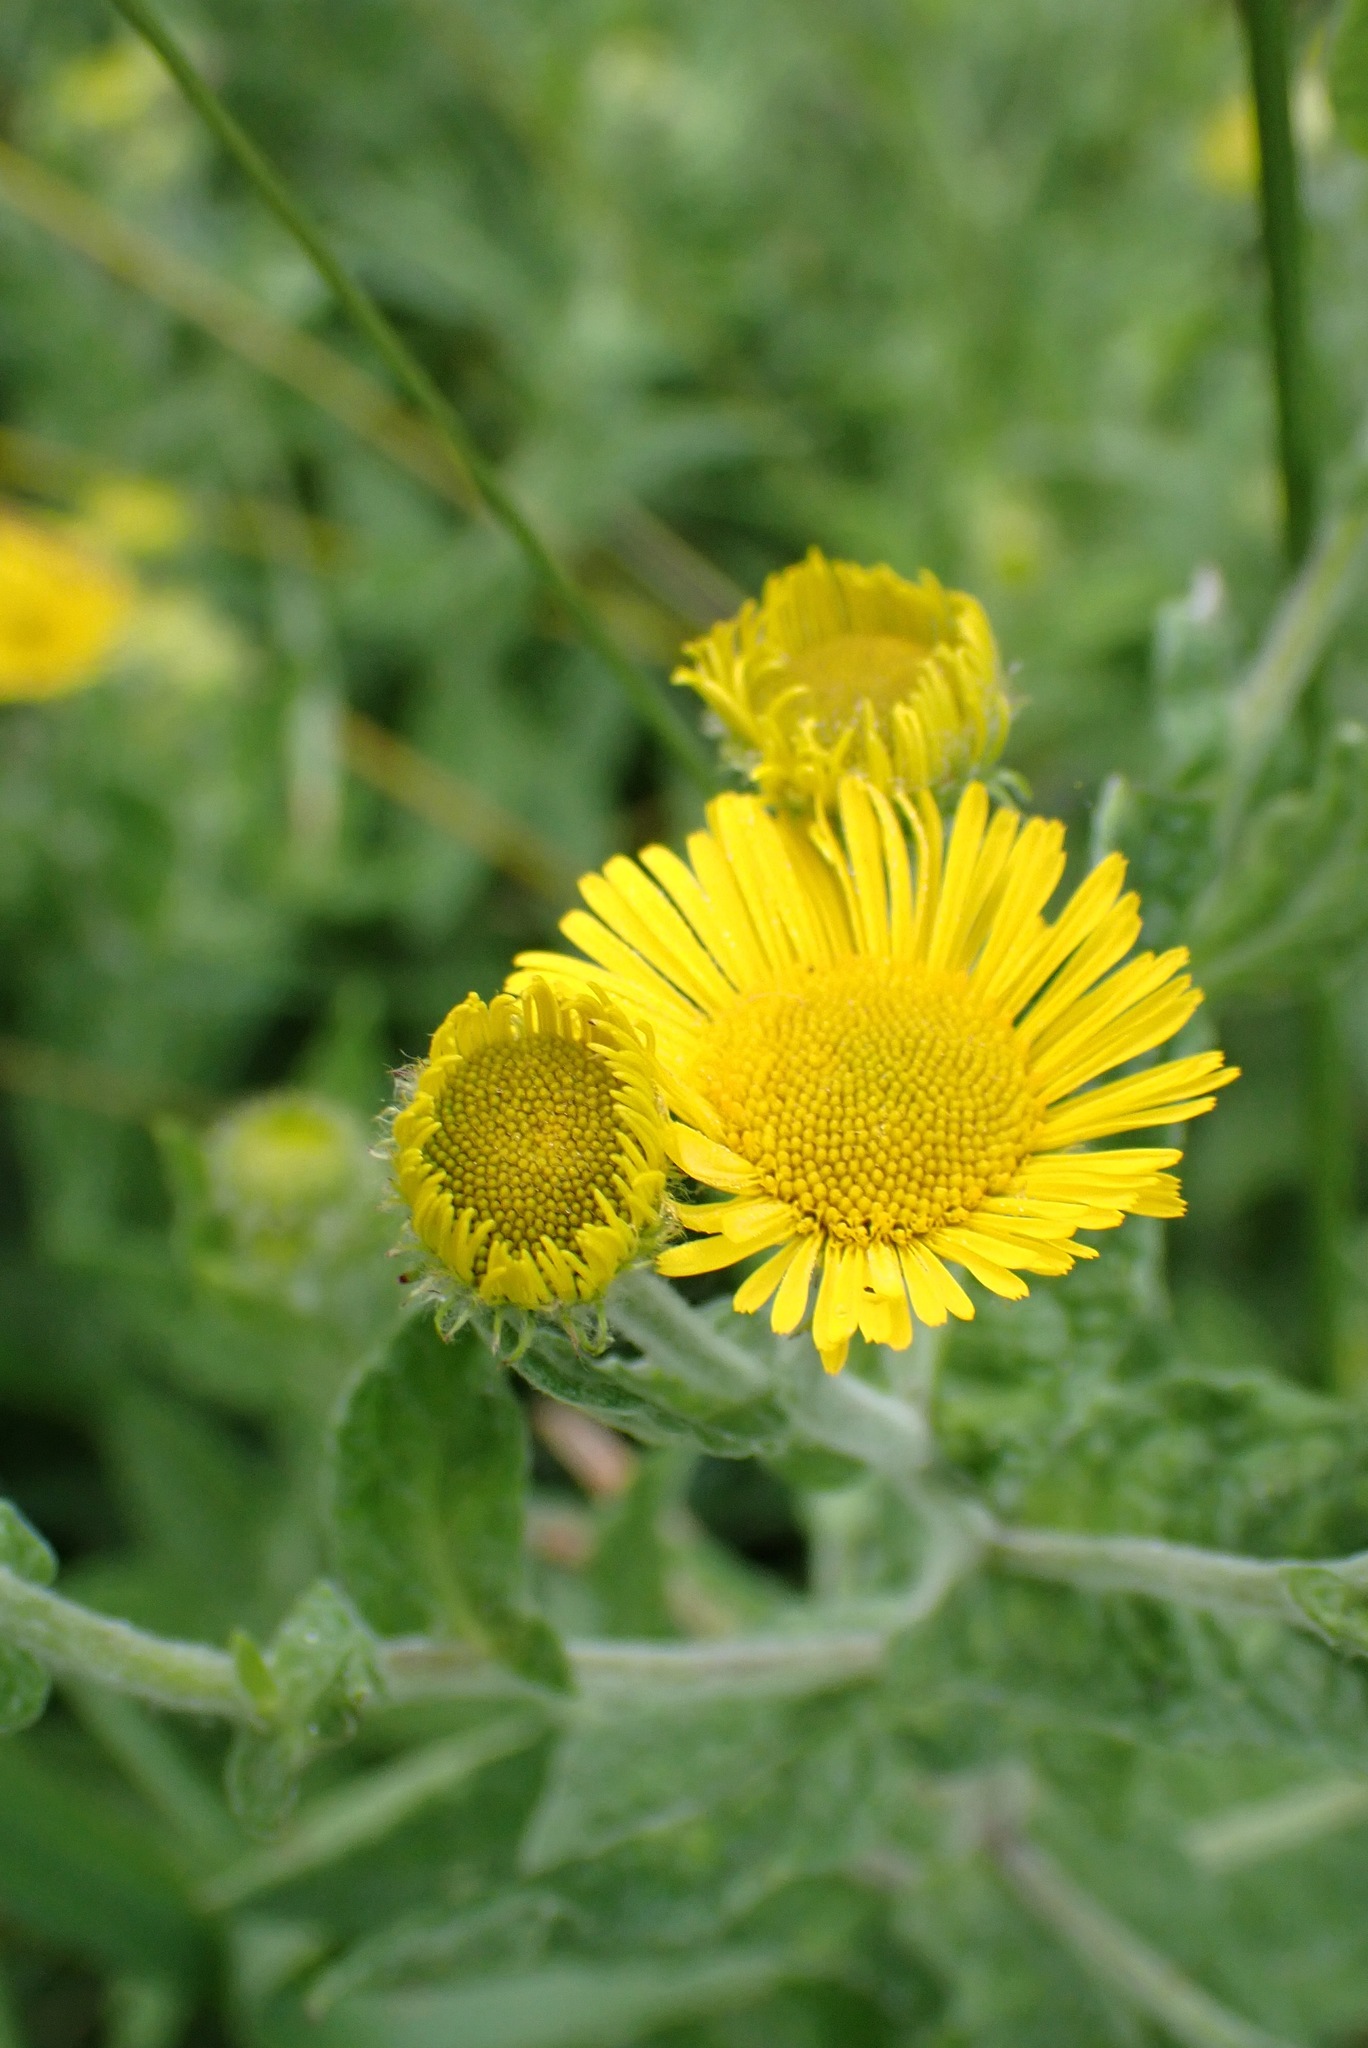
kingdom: Plantae
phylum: Tracheophyta
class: Magnoliopsida
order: Asterales
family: Asteraceae
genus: Pulicaria
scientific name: Pulicaria dysenterica
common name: Common fleabane
